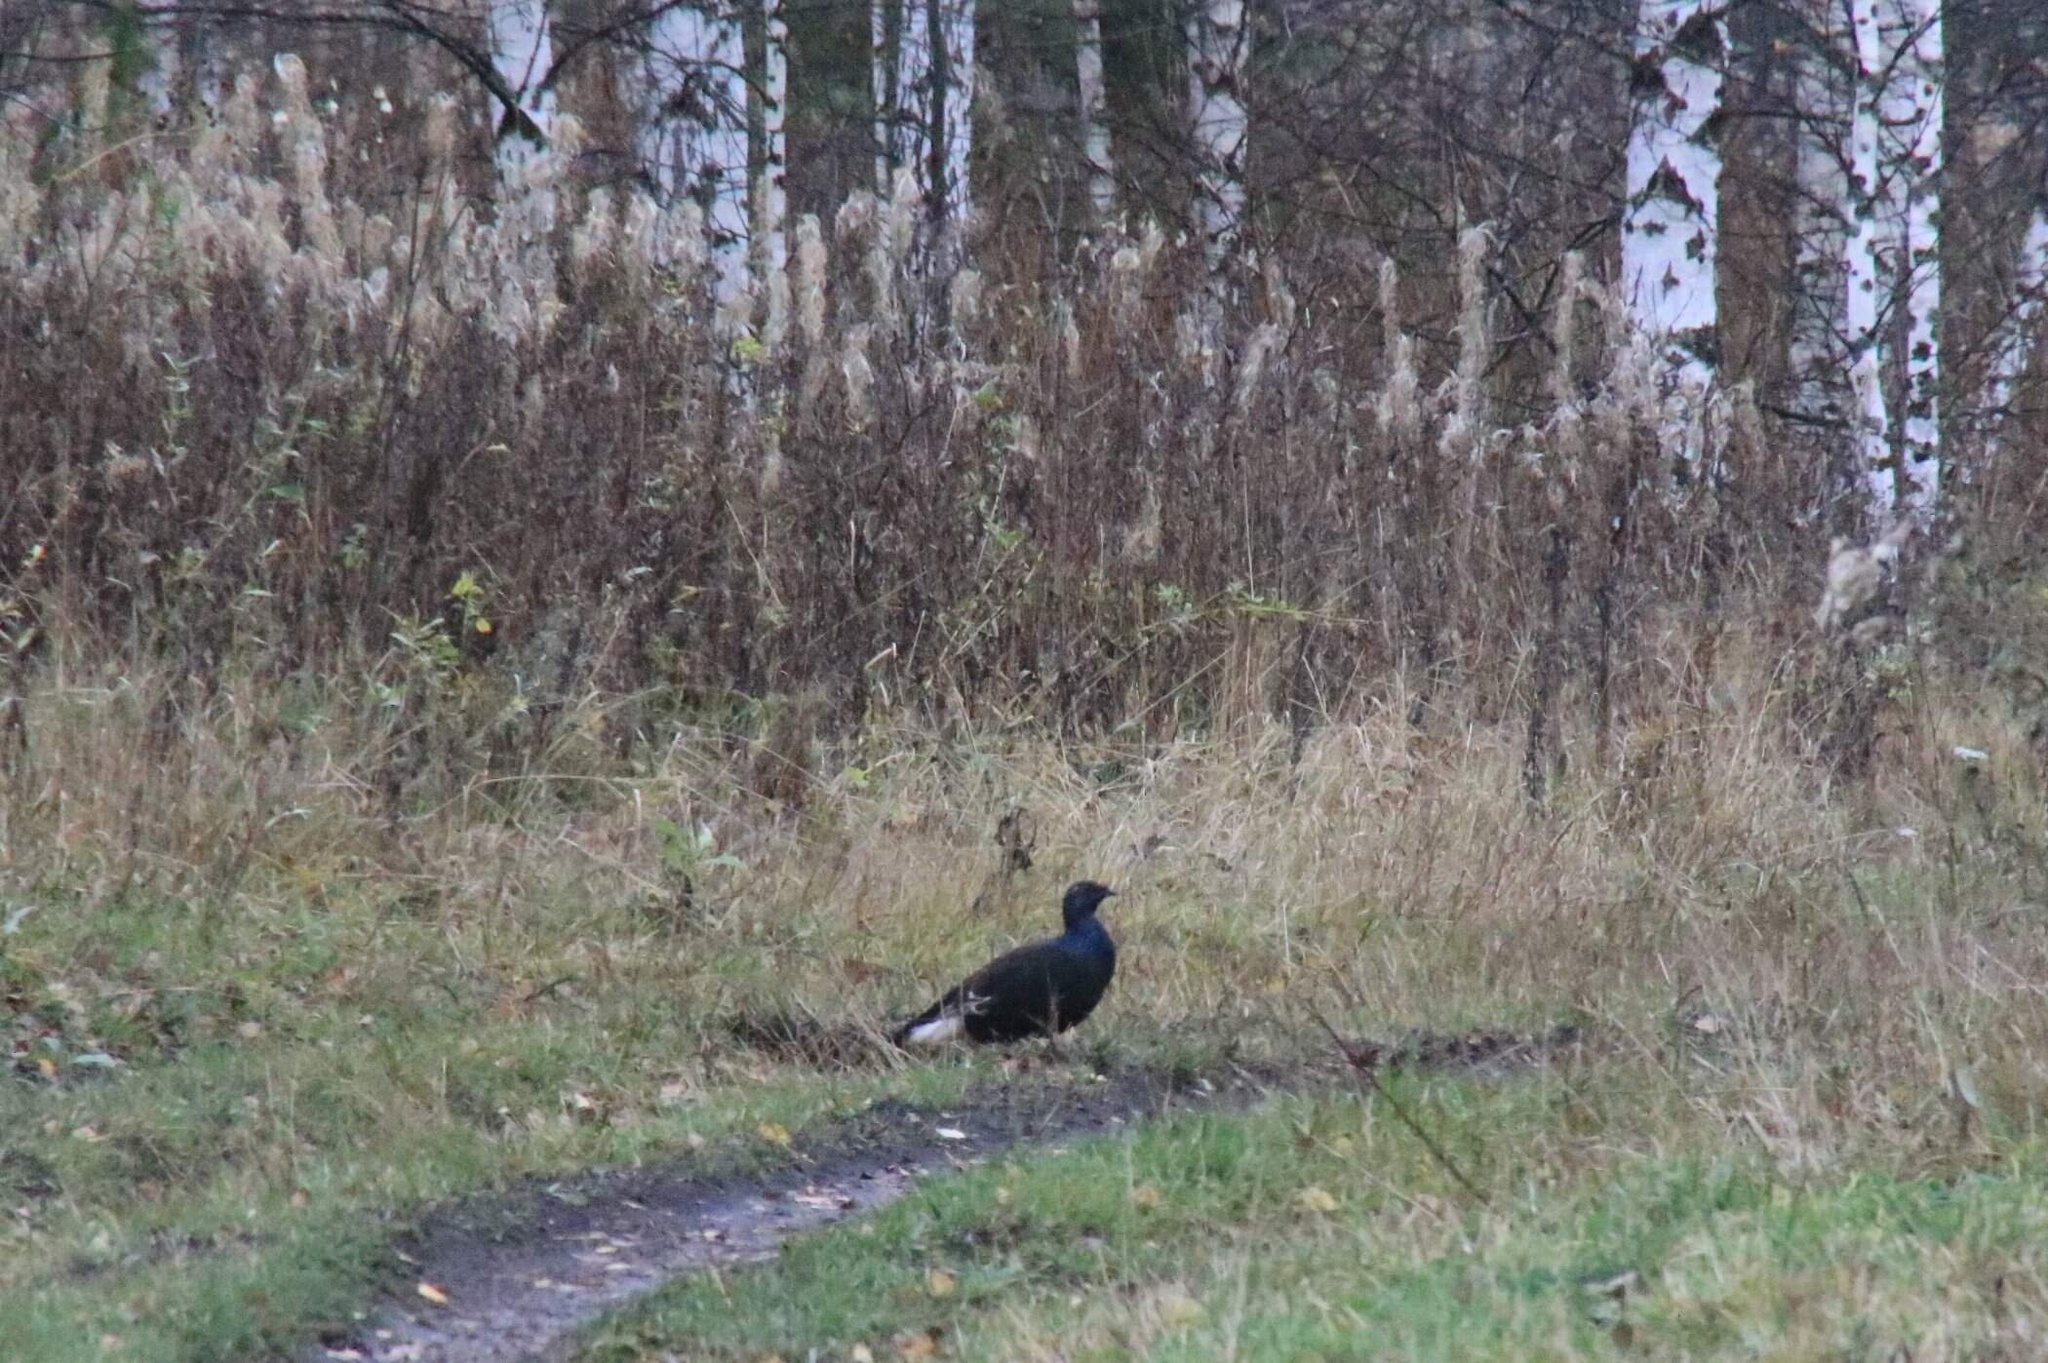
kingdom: Animalia
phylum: Chordata
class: Aves
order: Galliformes
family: Phasianidae
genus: Lyrurus
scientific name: Lyrurus tetrix
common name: Black grouse
